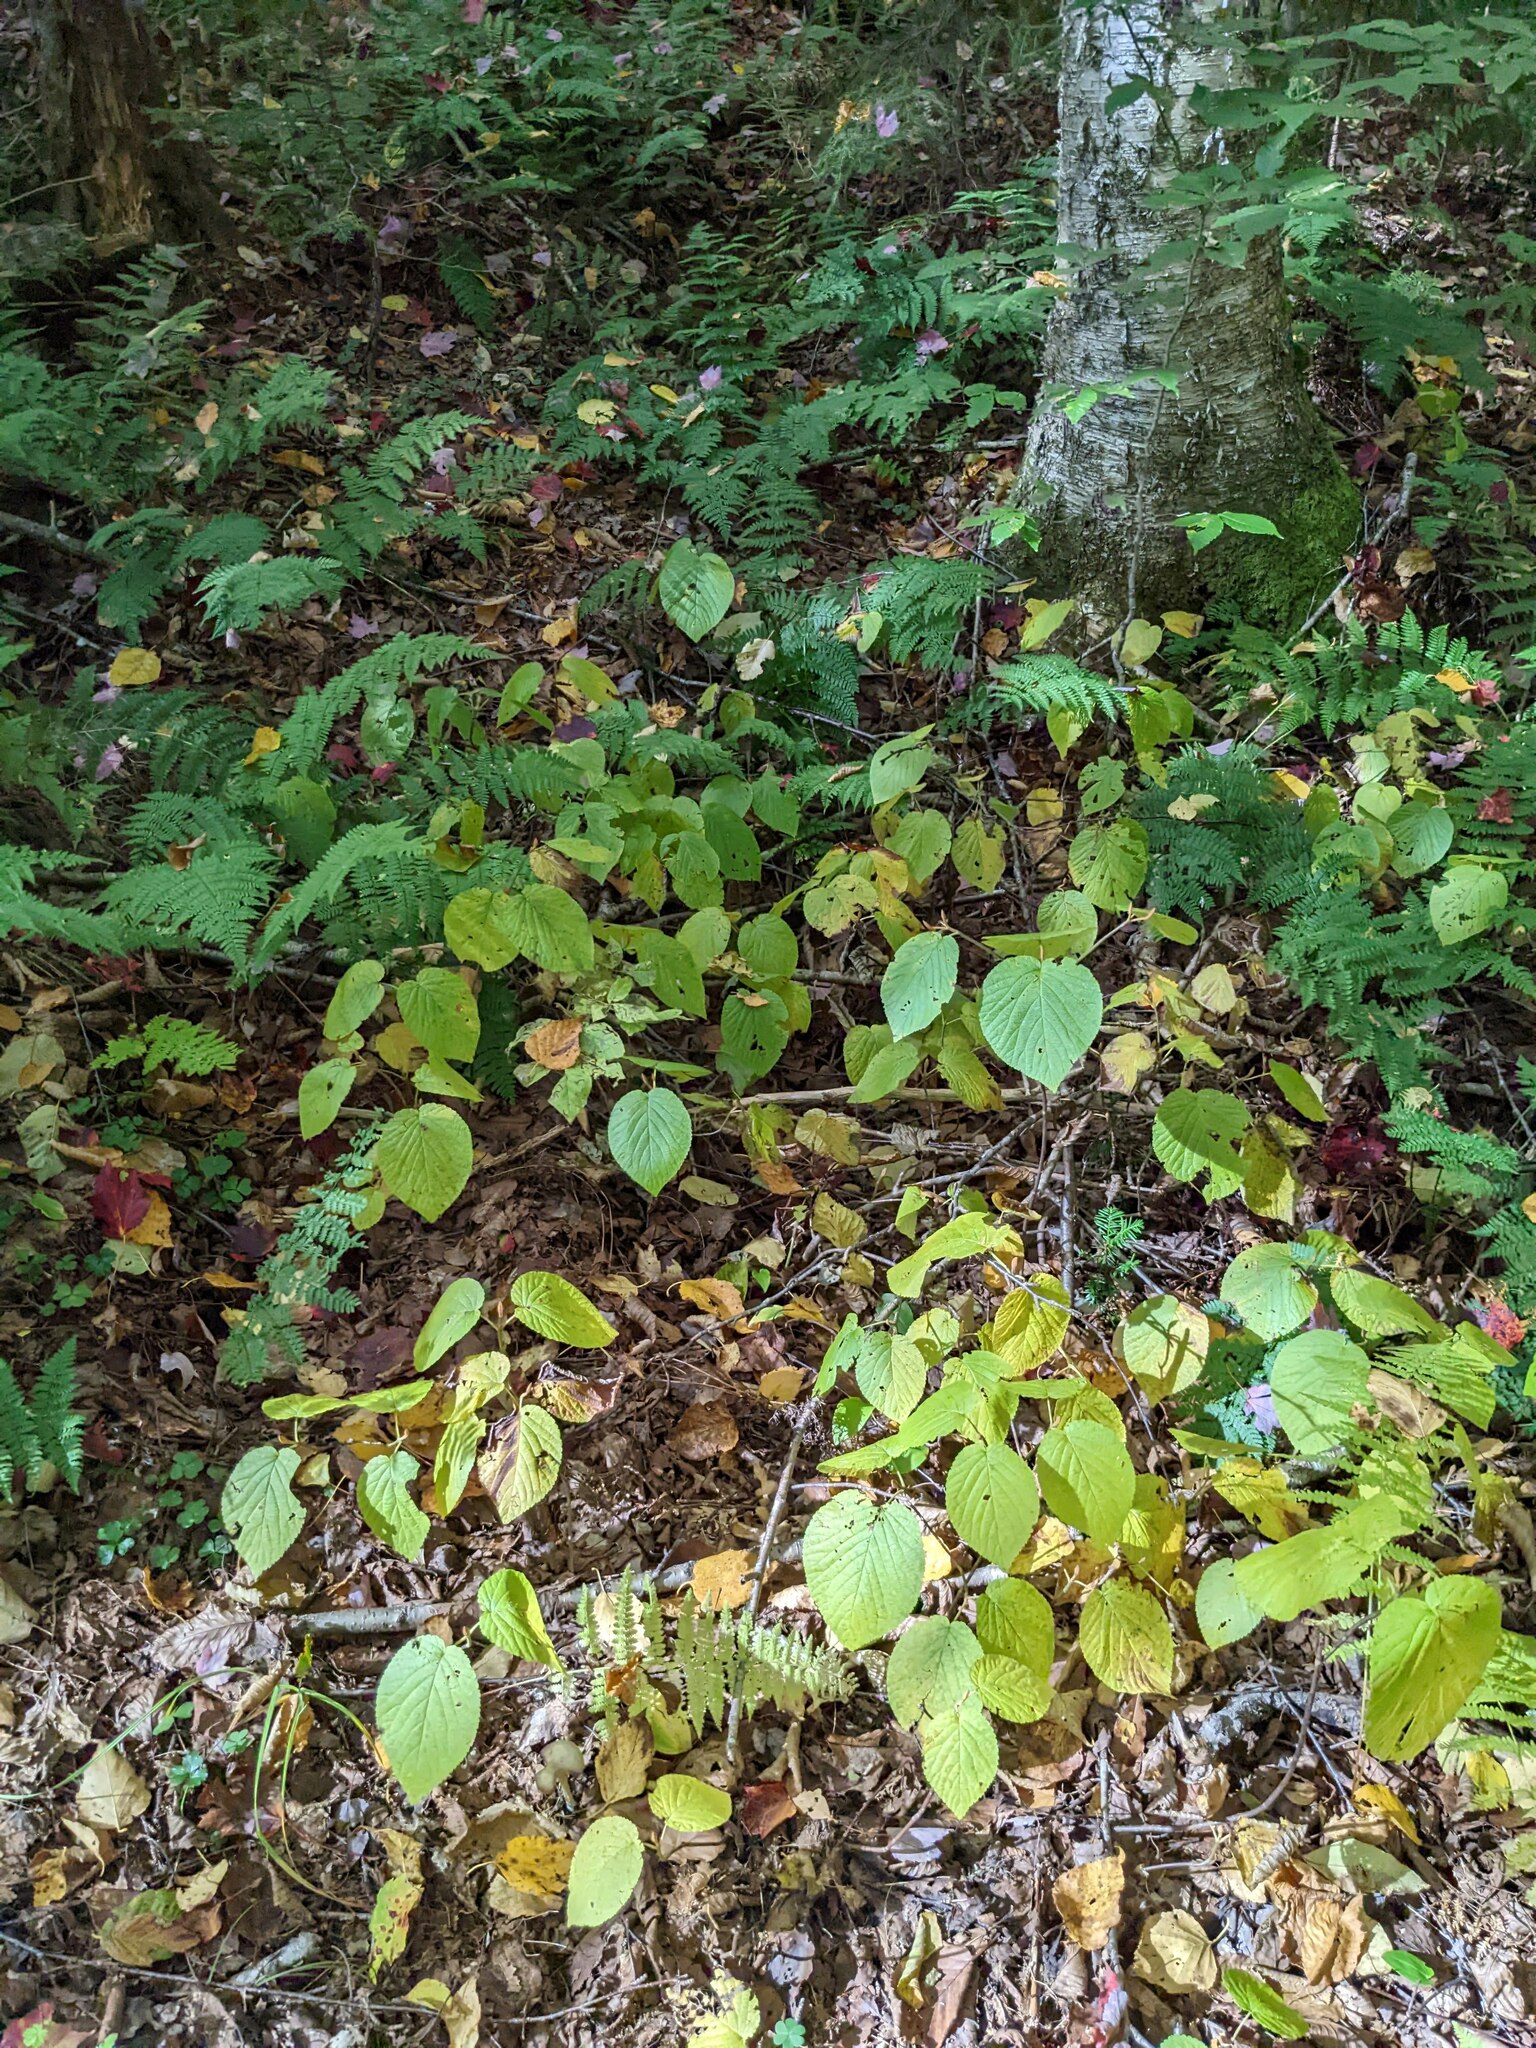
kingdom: Plantae
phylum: Tracheophyta
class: Magnoliopsida
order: Dipsacales
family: Viburnaceae
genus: Viburnum
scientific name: Viburnum lantanoides
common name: Hobblebush
